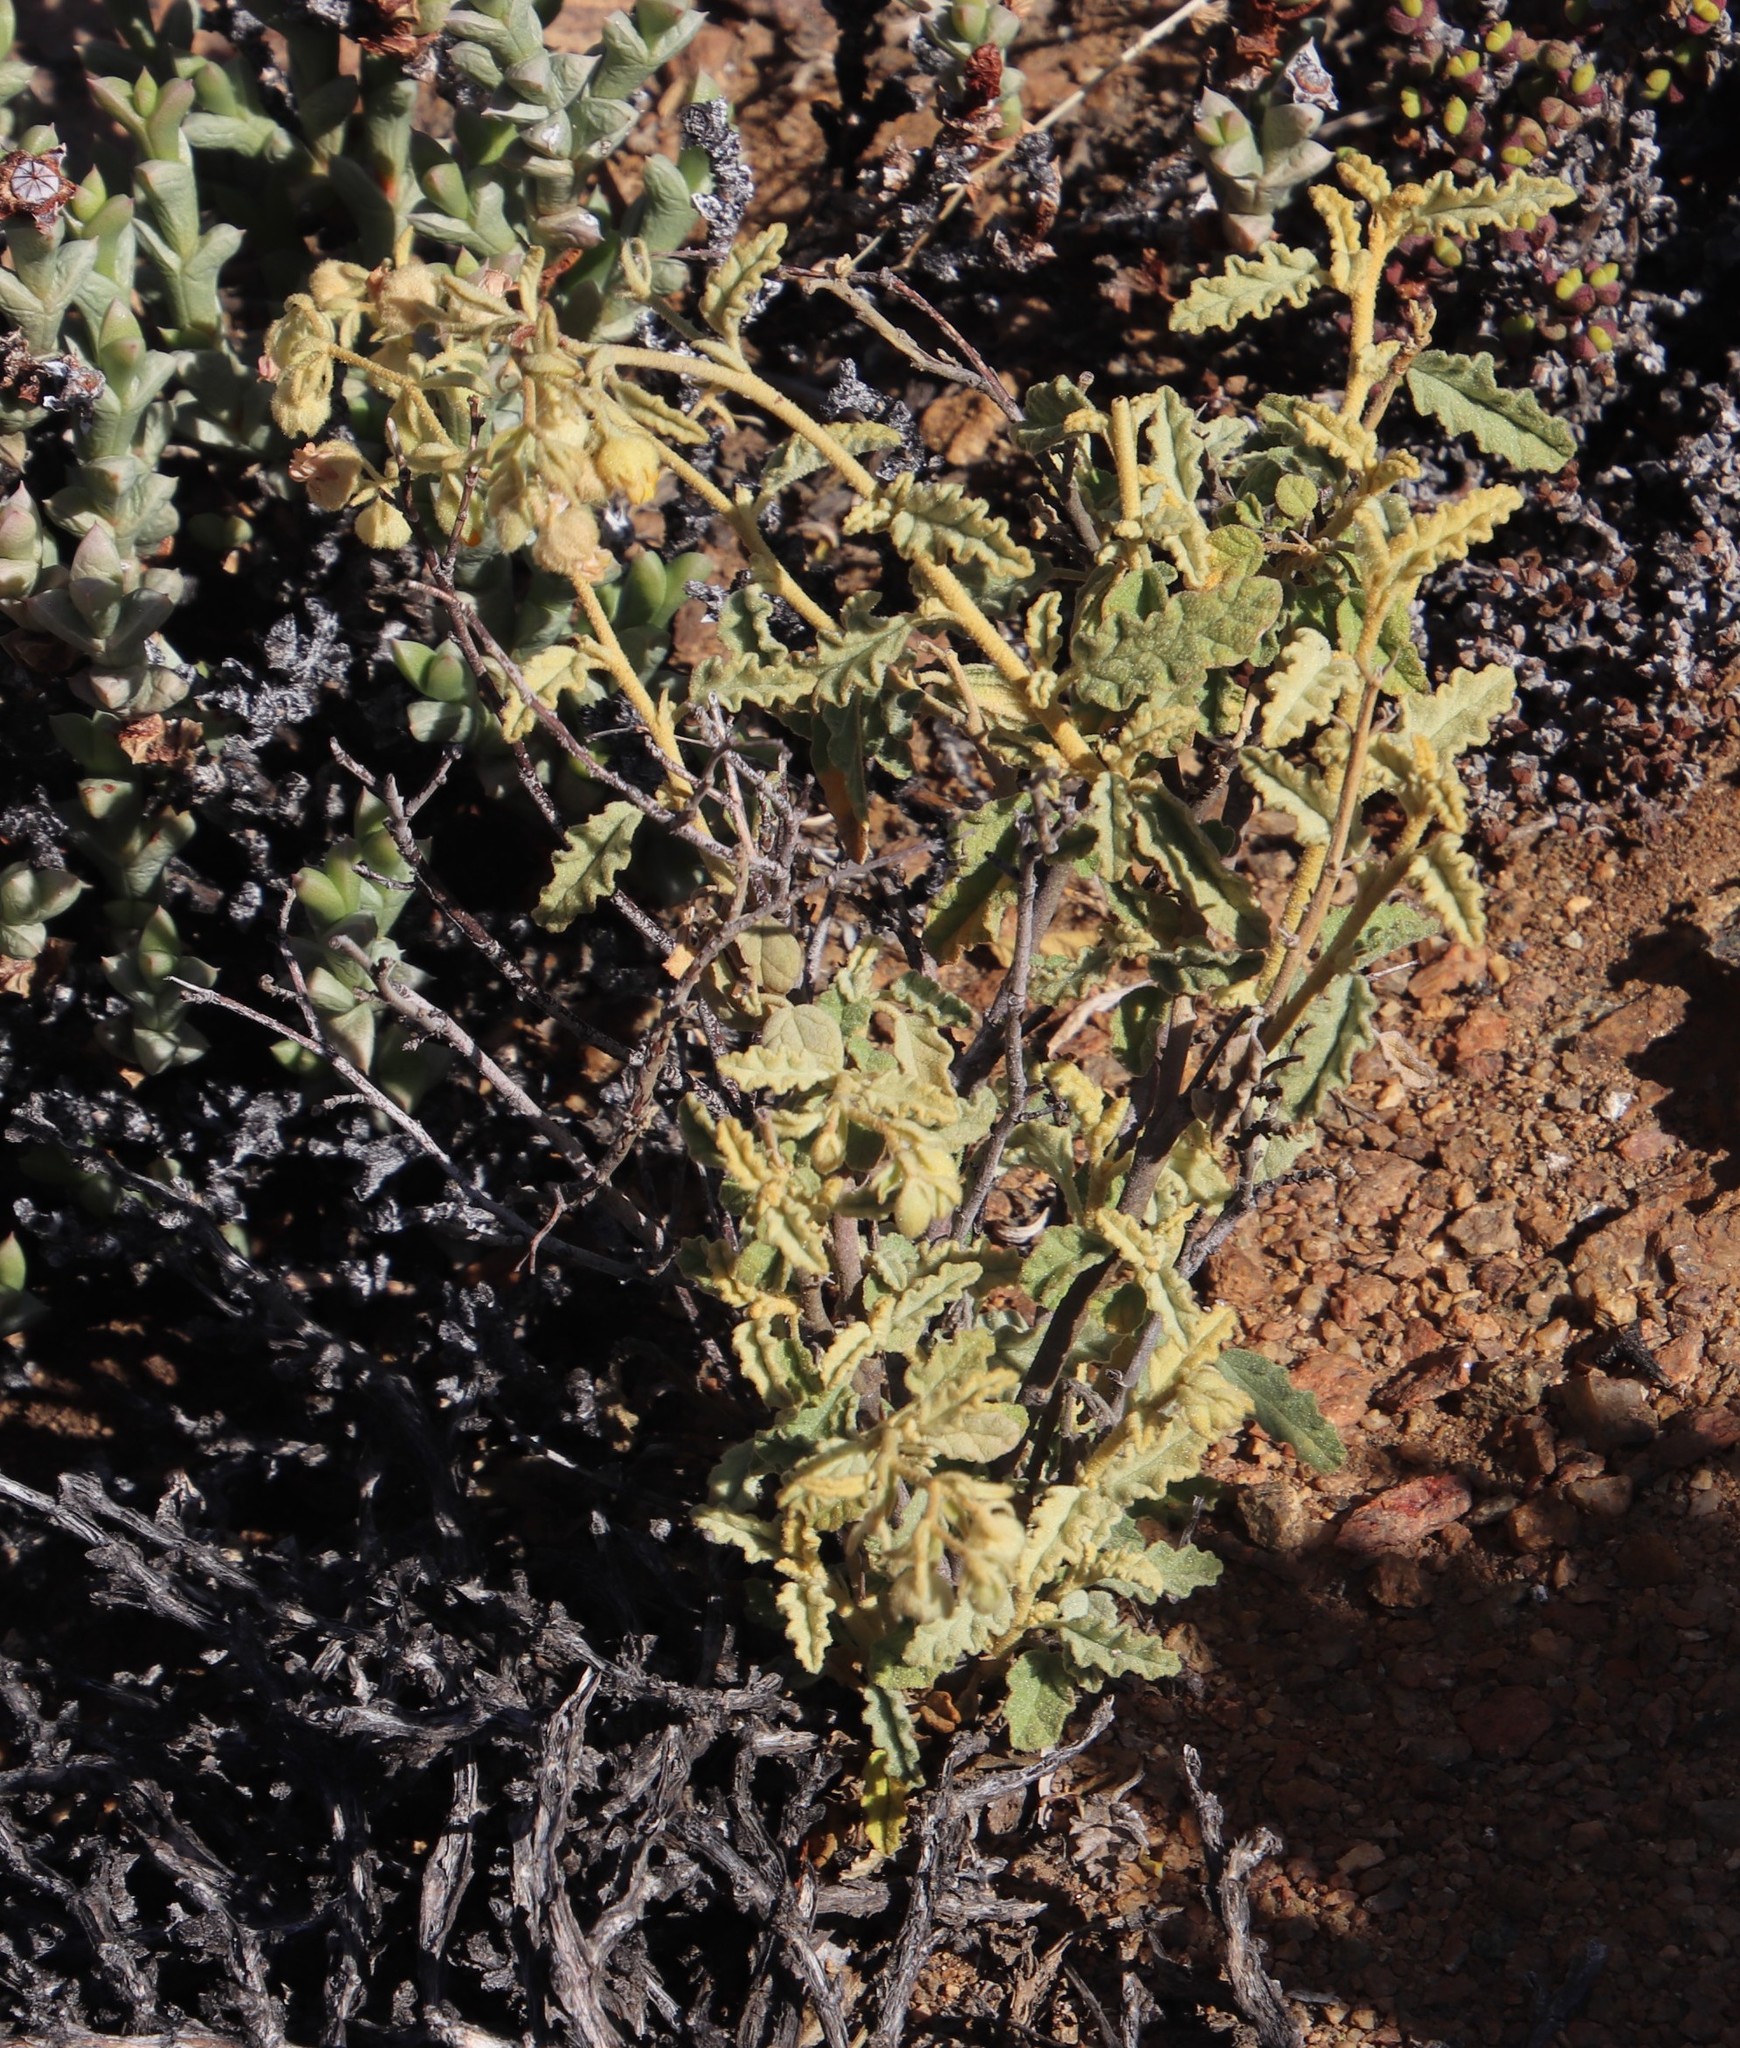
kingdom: Plantae
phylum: Tracheophyta
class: Magnoliopsida
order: Malvales
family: Malvaceae
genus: Hermannia
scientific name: Hermannia amoena
